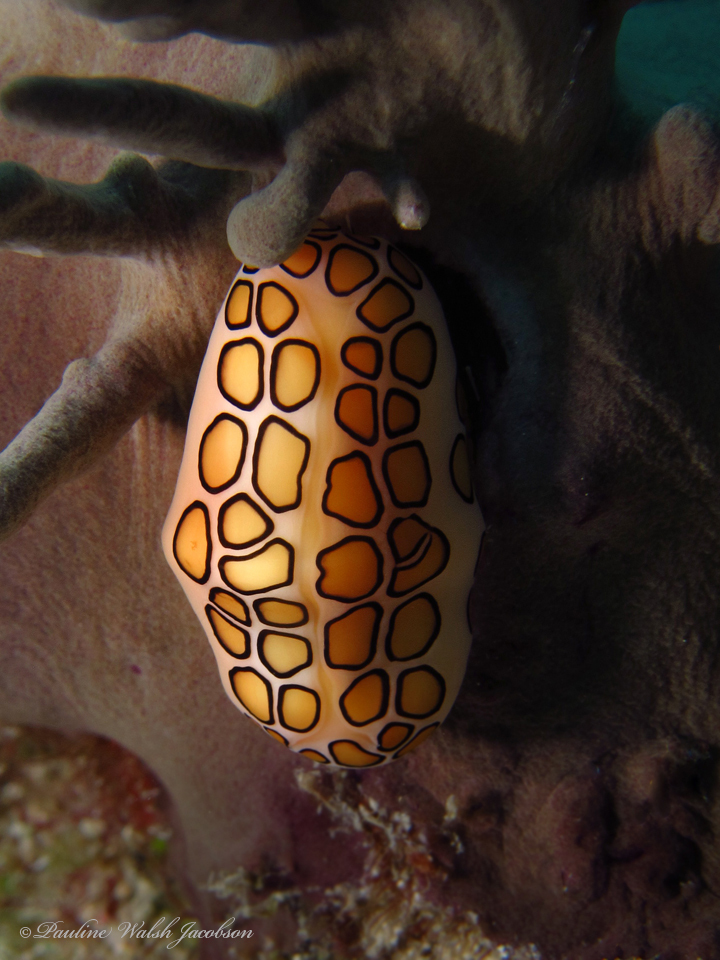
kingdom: Animalia
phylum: Mollusca
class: Gastropoda
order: Littorinimorpha
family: Ovulidae
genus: Cyphoma
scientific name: Cyphoma gibbosum
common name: Flamingo tongue
